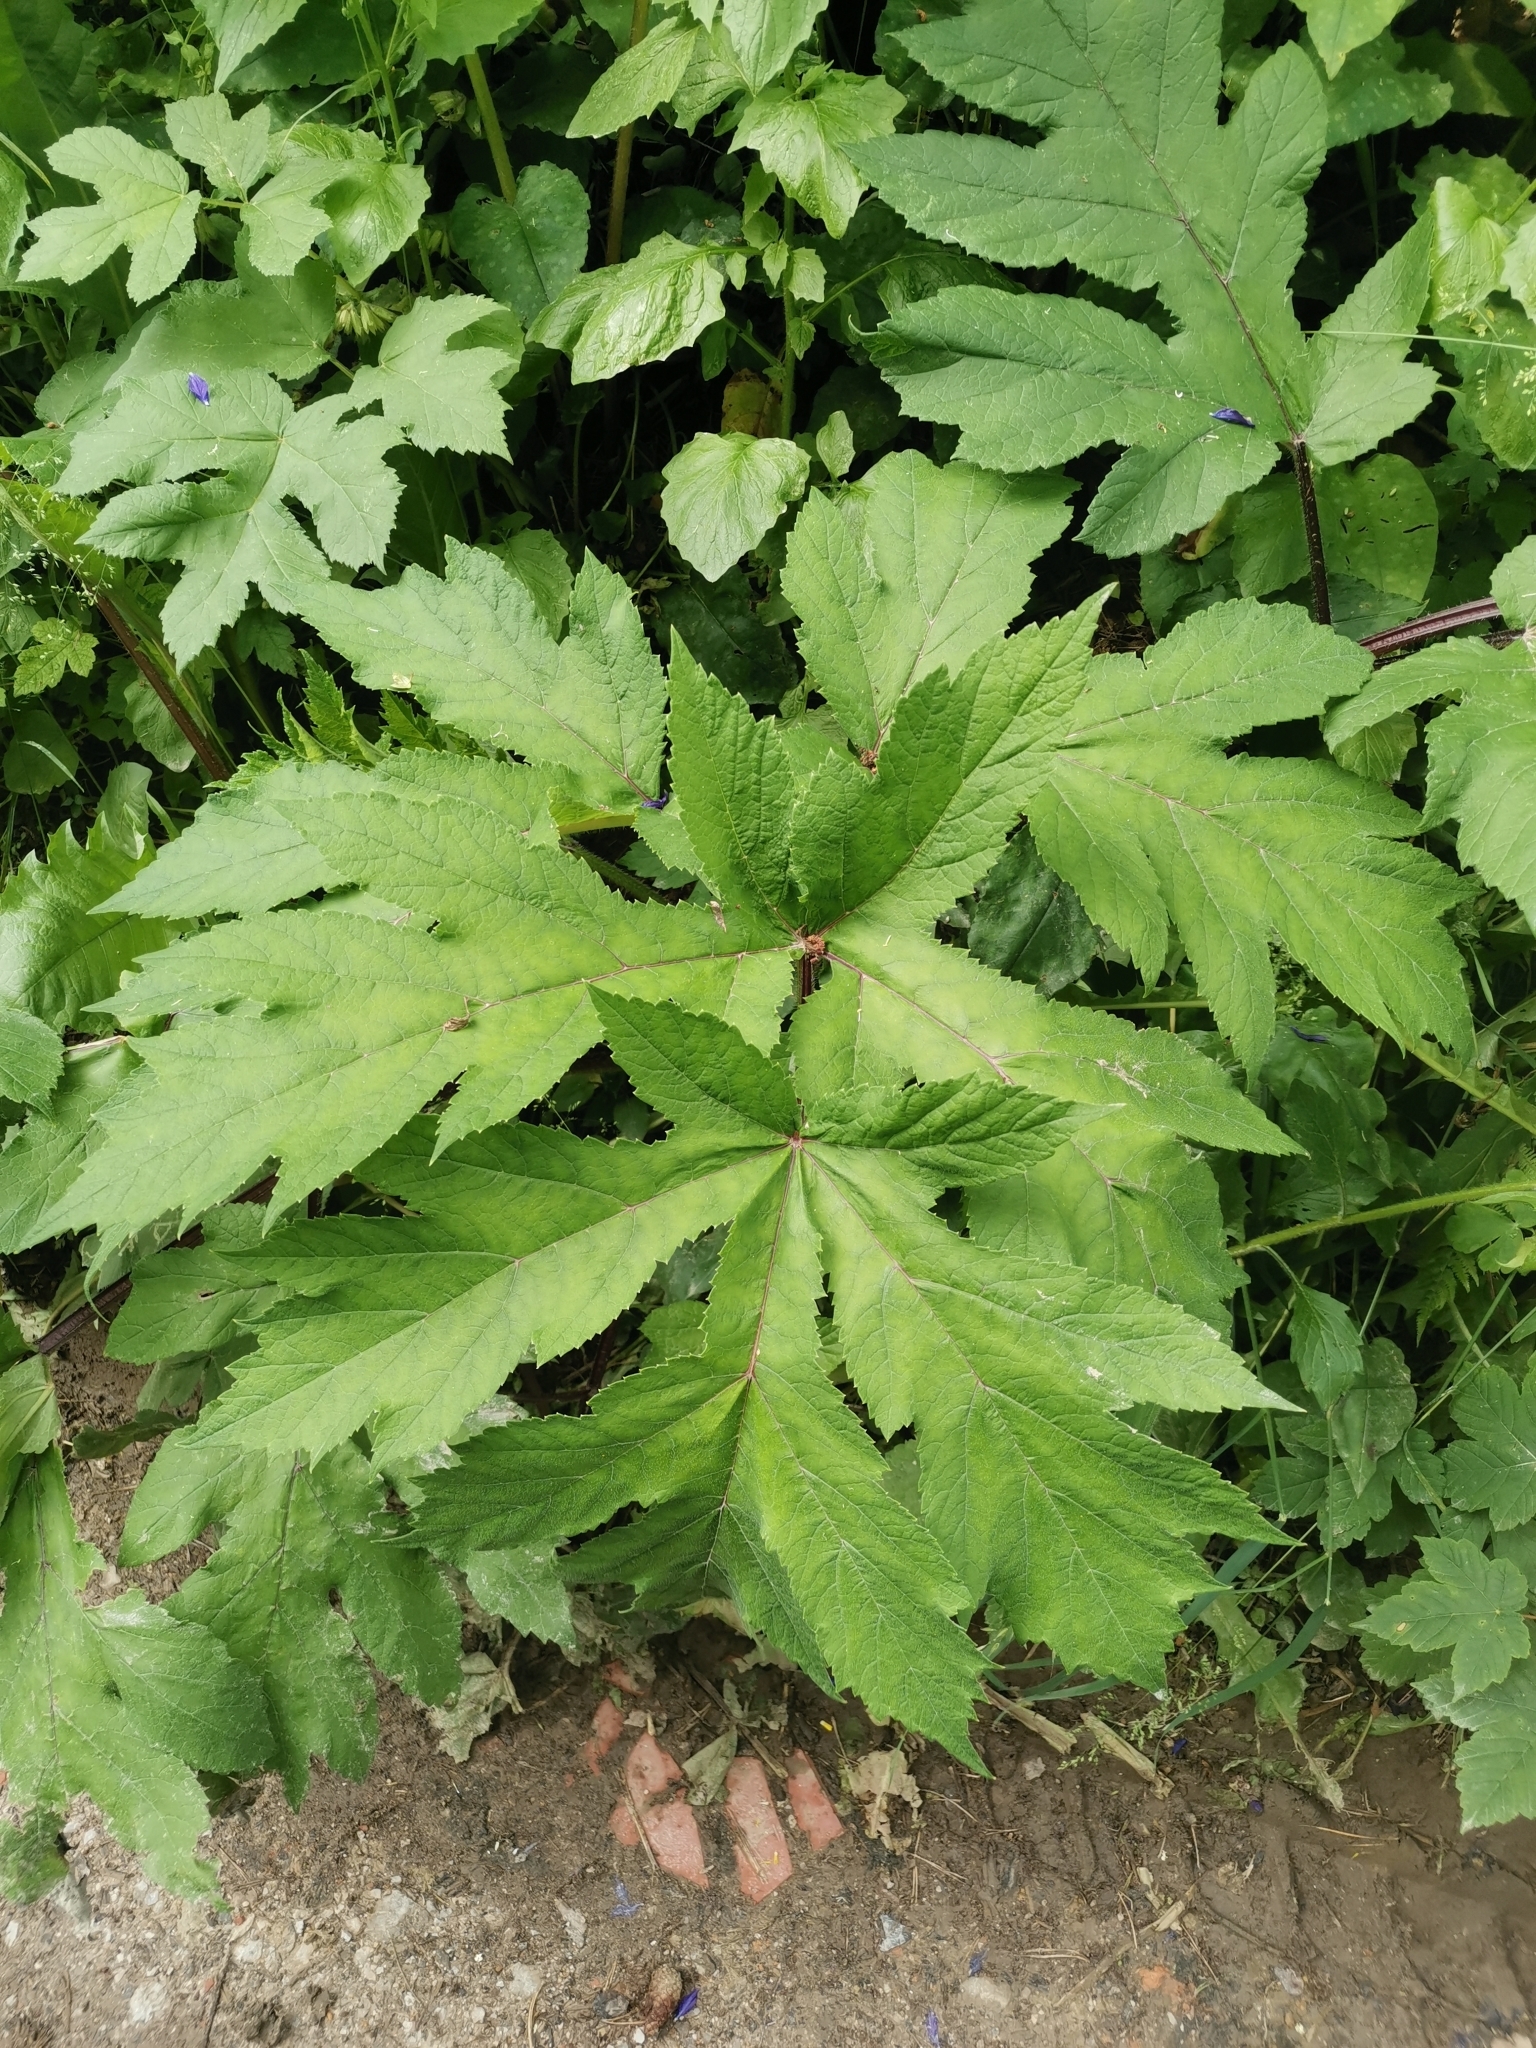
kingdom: Plantae
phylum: Tracheophyta
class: Magnoliopsida
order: Apiales
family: Apiaceae
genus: Heracleum
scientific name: Heracleum sphondylium
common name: Hogweed
